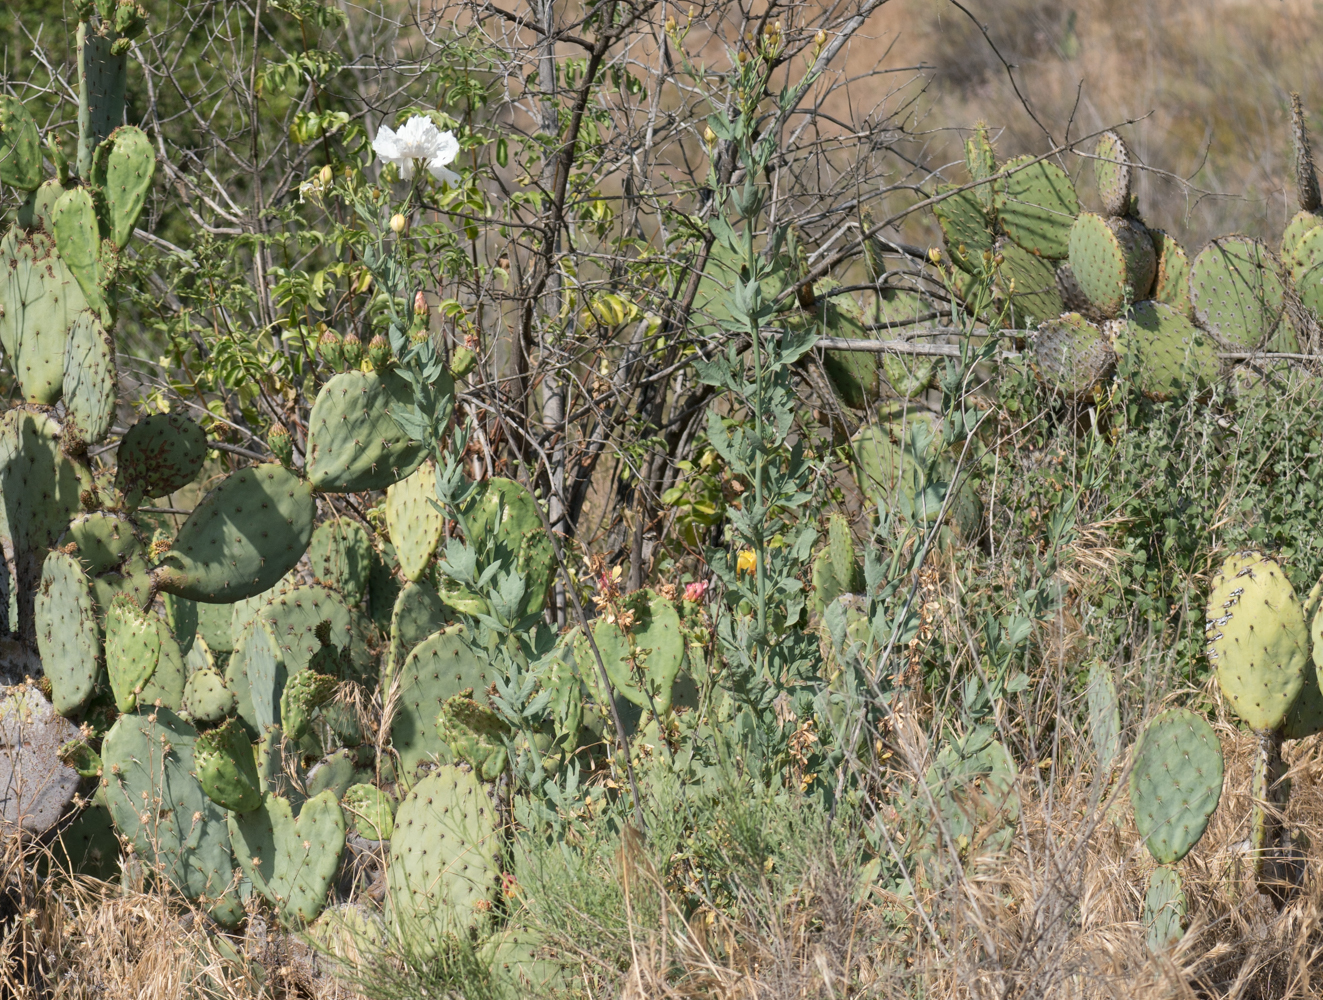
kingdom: Plantae
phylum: Tracheophyta
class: Magnoliopsida
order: Ranunculales
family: Papaveraceae
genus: Romneya
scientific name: Romneya coulteri
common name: California tree-poppy
